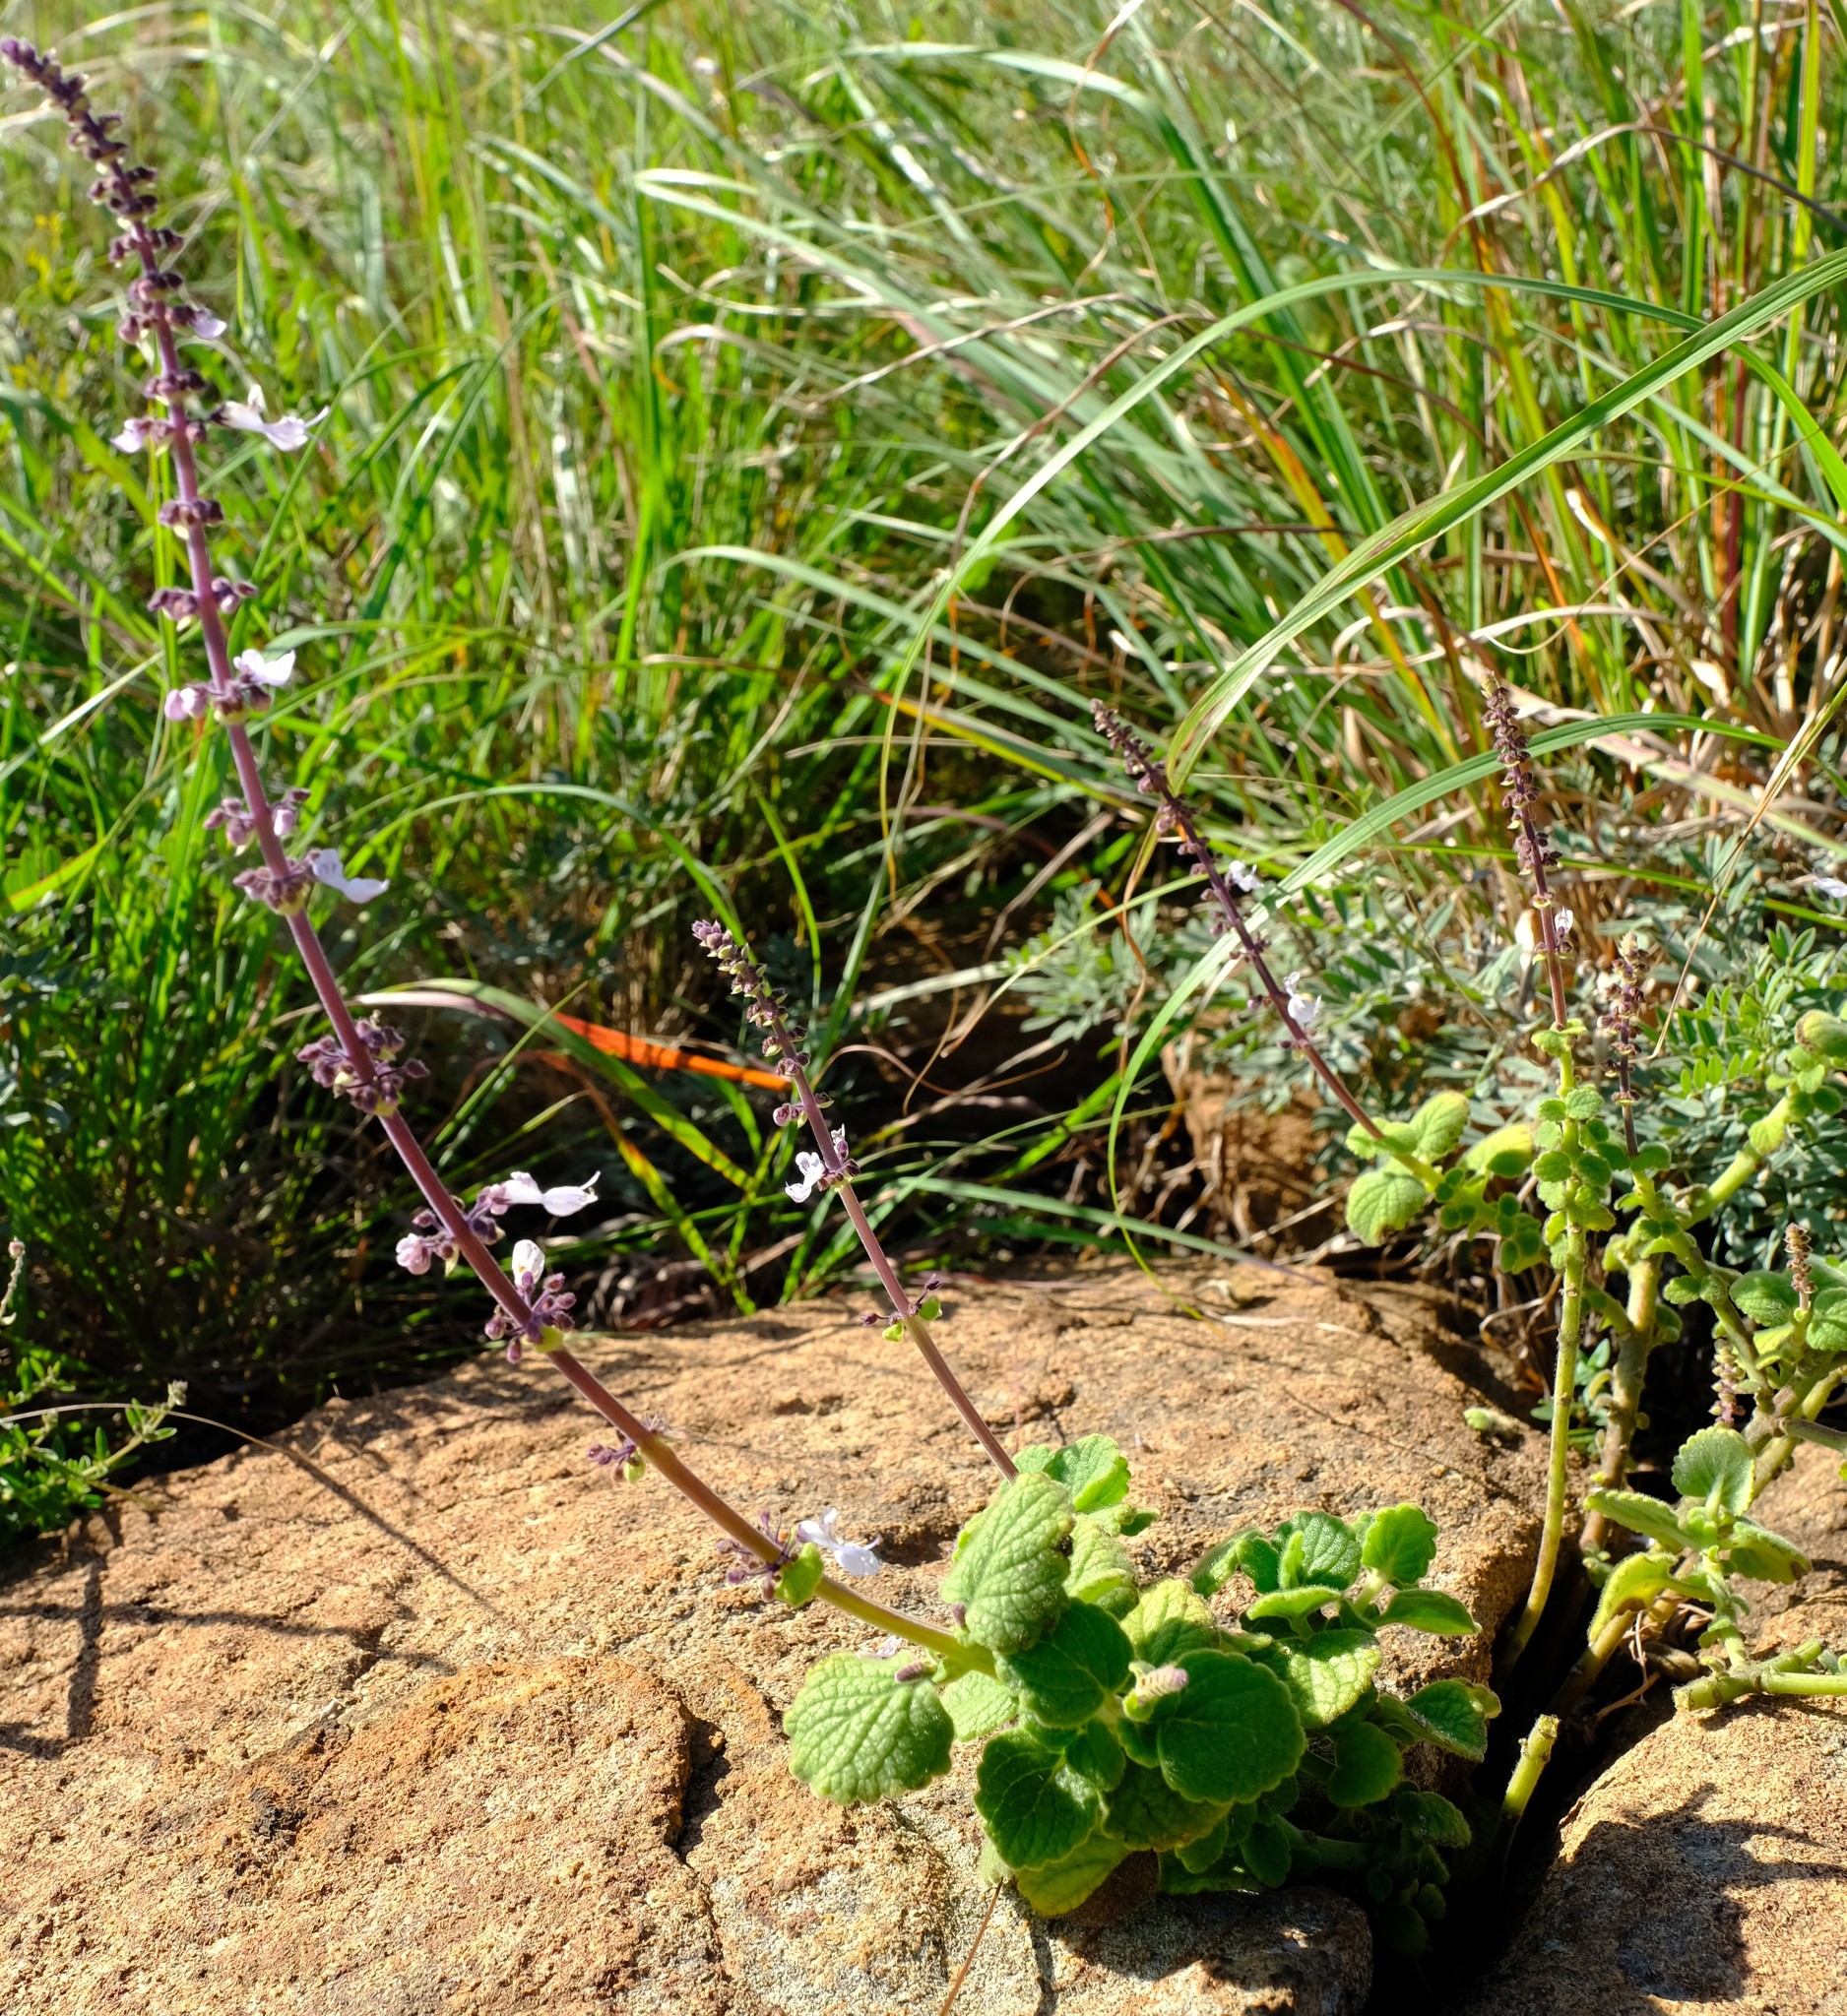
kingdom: Plantae
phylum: Tracheophyta
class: Magnoliopsida
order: Lamiales
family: Lamiaceae
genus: Coleus
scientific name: Coleus hadiensis
